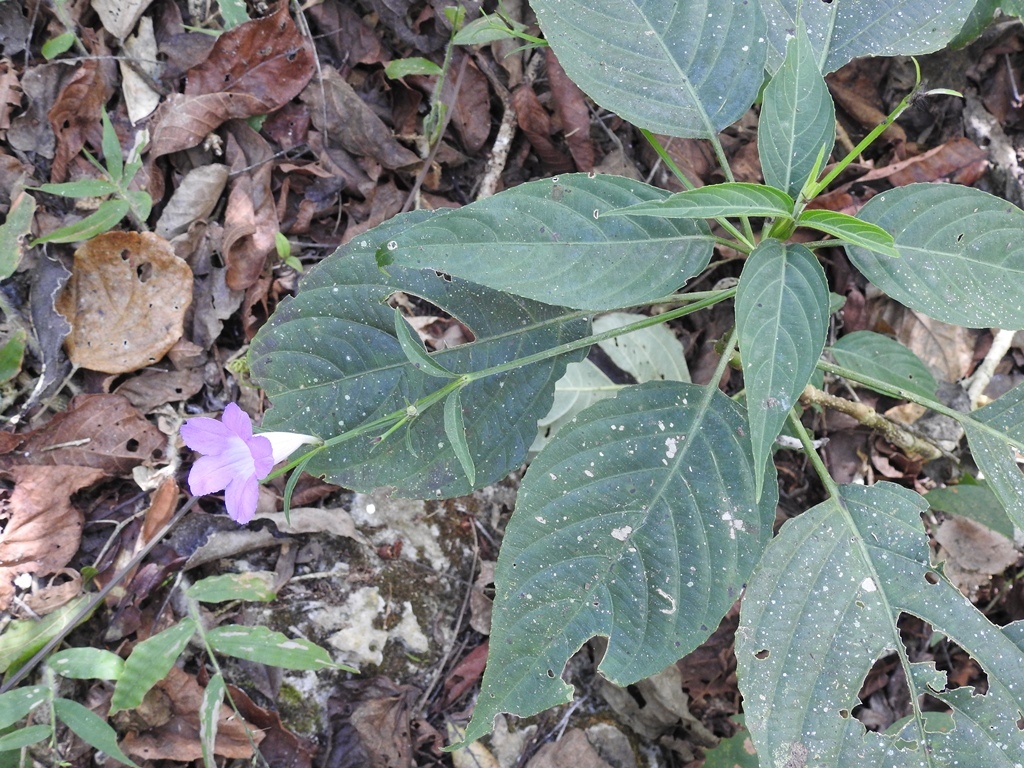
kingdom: Plantae
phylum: Tracheophyta
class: Magnoliopsida
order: Lamiales
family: Acanthaceae
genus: Ruellia
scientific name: Ruellia breedlovei
